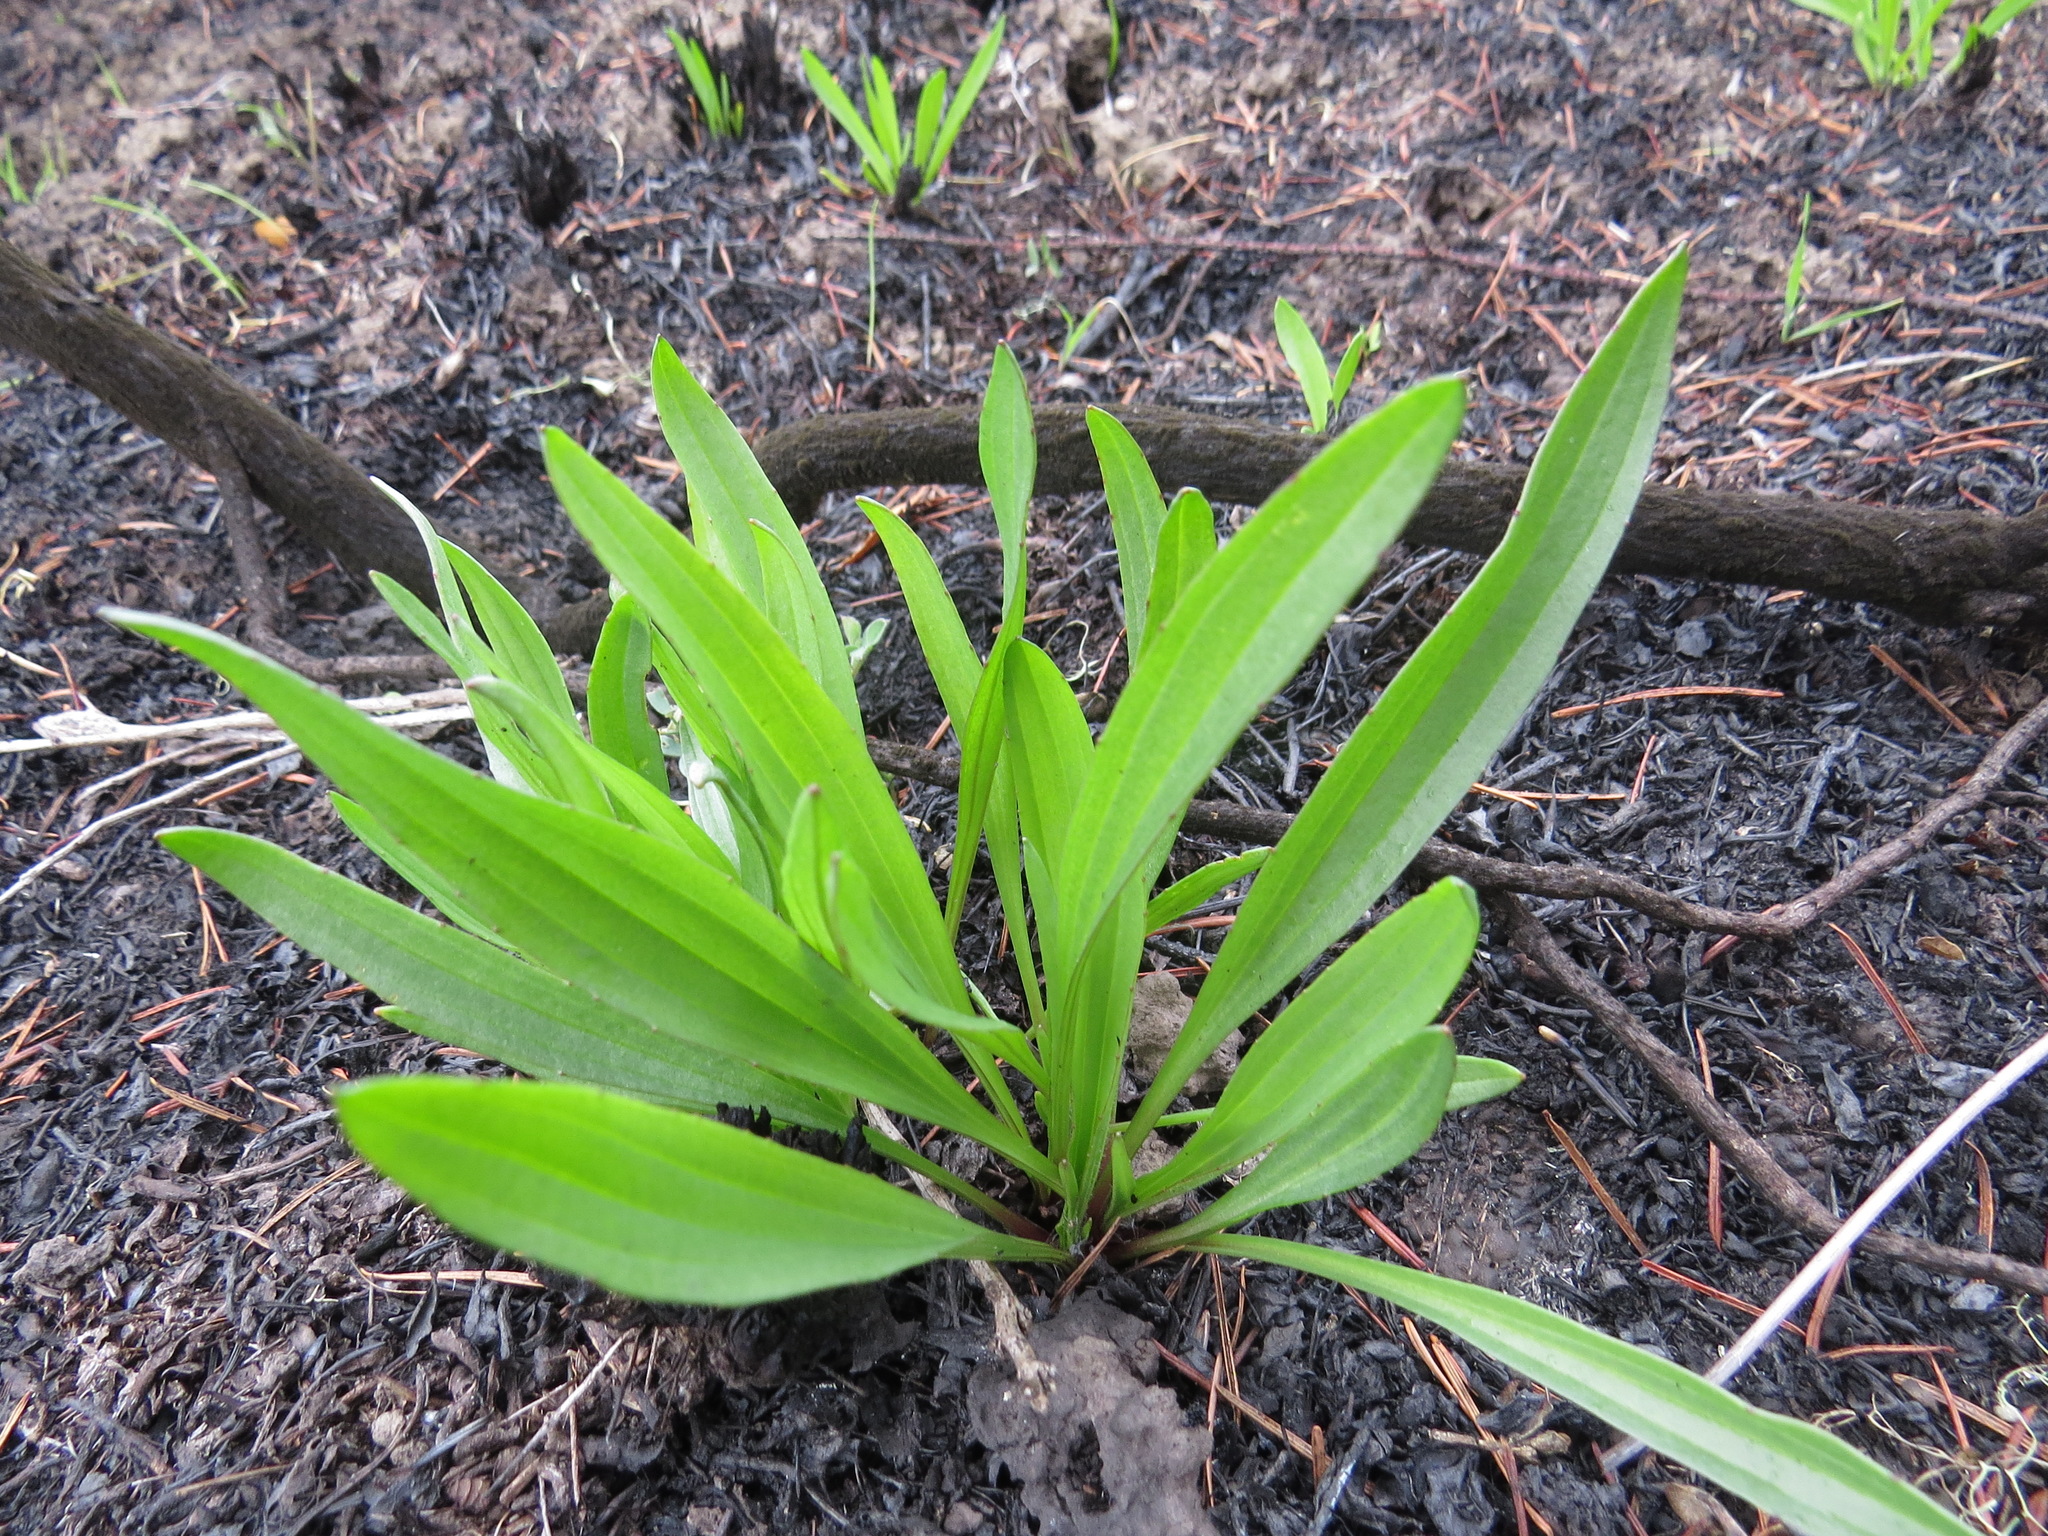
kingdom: Plantae
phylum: Tracheophyta
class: Magnoliopsida
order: Lamiales
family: Plantaginaceae
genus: Plantago
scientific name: Plantago lanceolata
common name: Ribwort plantain
